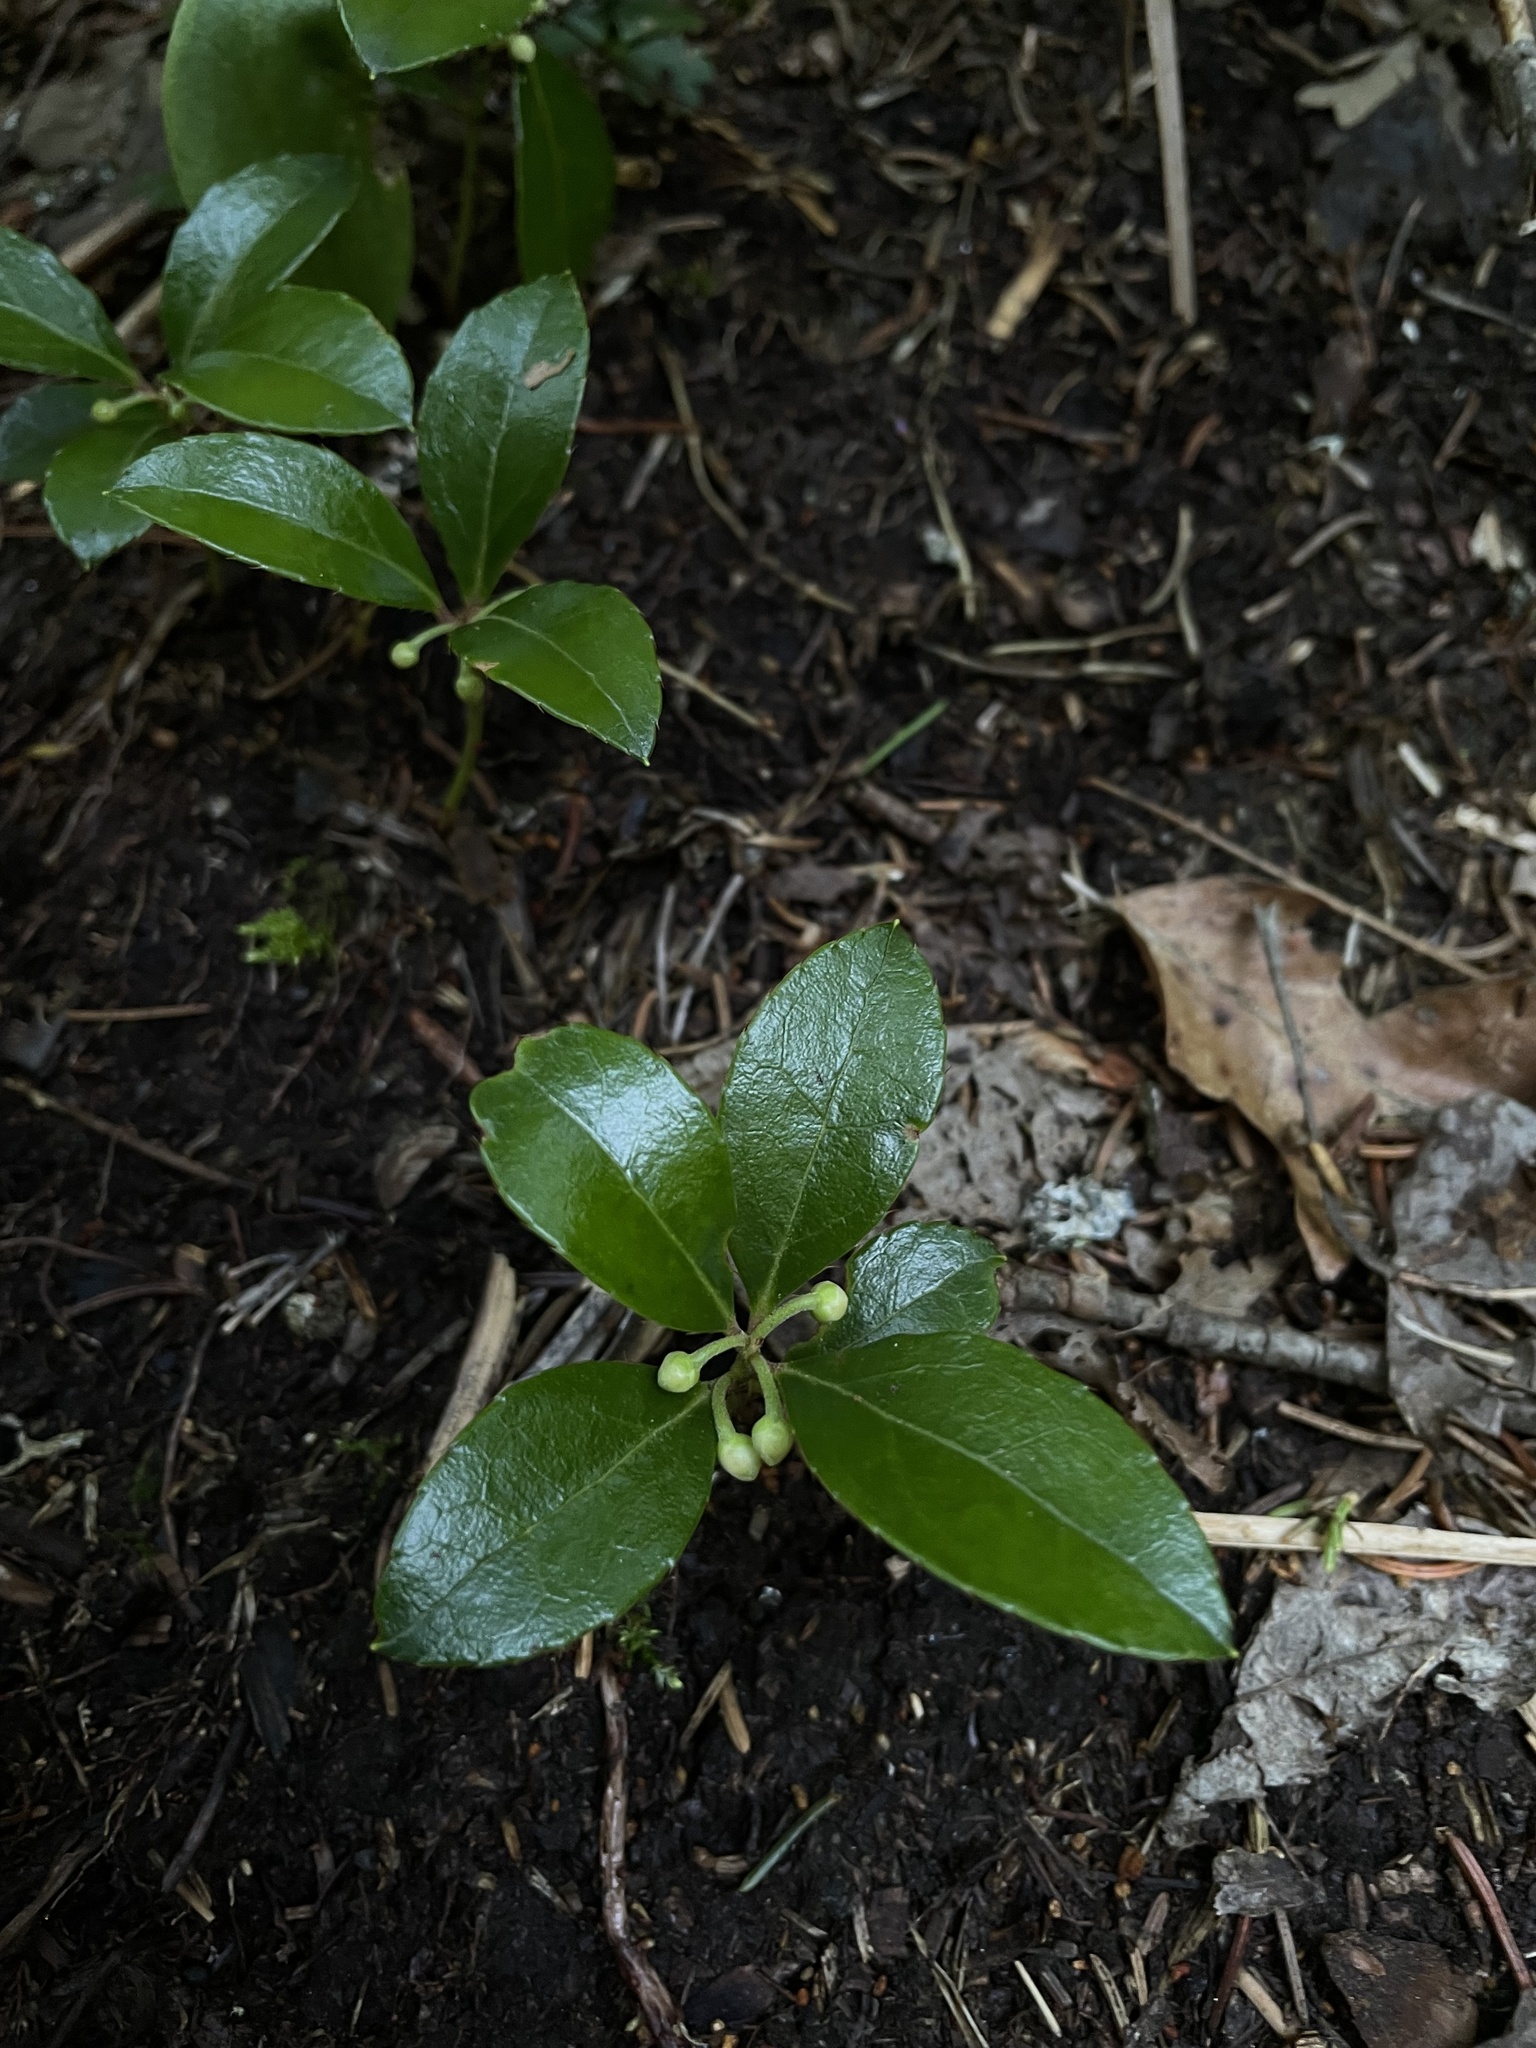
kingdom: Plantae
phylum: Tracheophyta
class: Magnoliopsida
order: Ericales
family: Ericaceae
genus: Gaultheria
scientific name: Gaultheria procumbens
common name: Checkerberry
